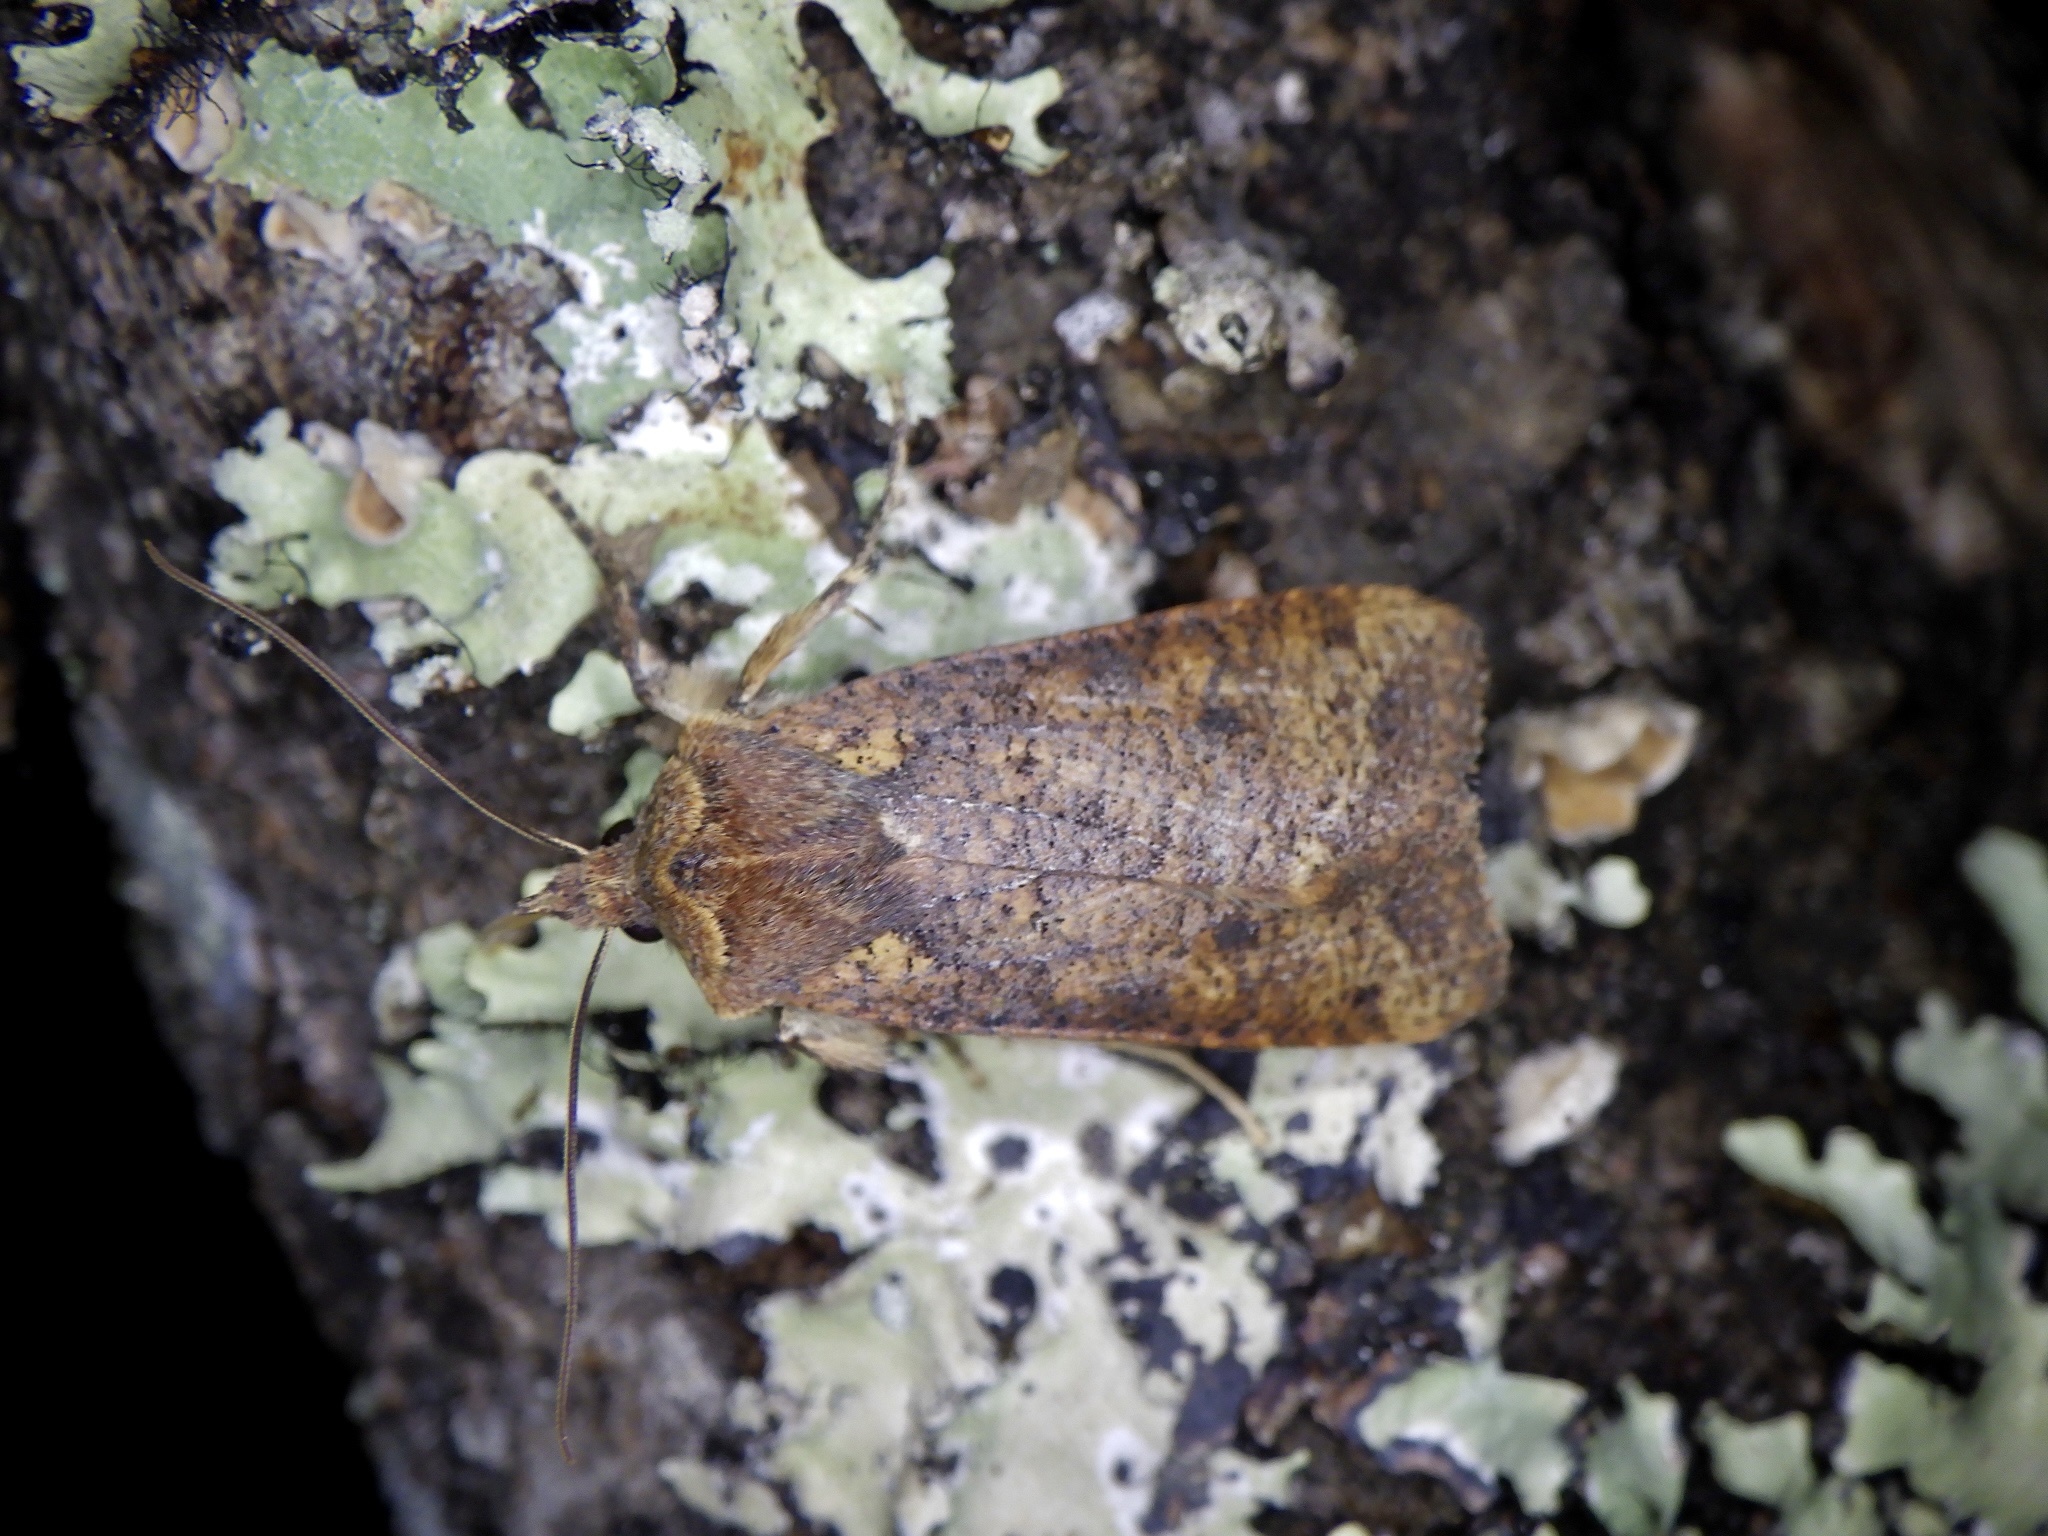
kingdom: Animalia
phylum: Arthropoda
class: Insecta
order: Lepidoptera
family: Noctuidae
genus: Rhynchaglaea
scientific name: Rhynchaglaea fuscipennis
